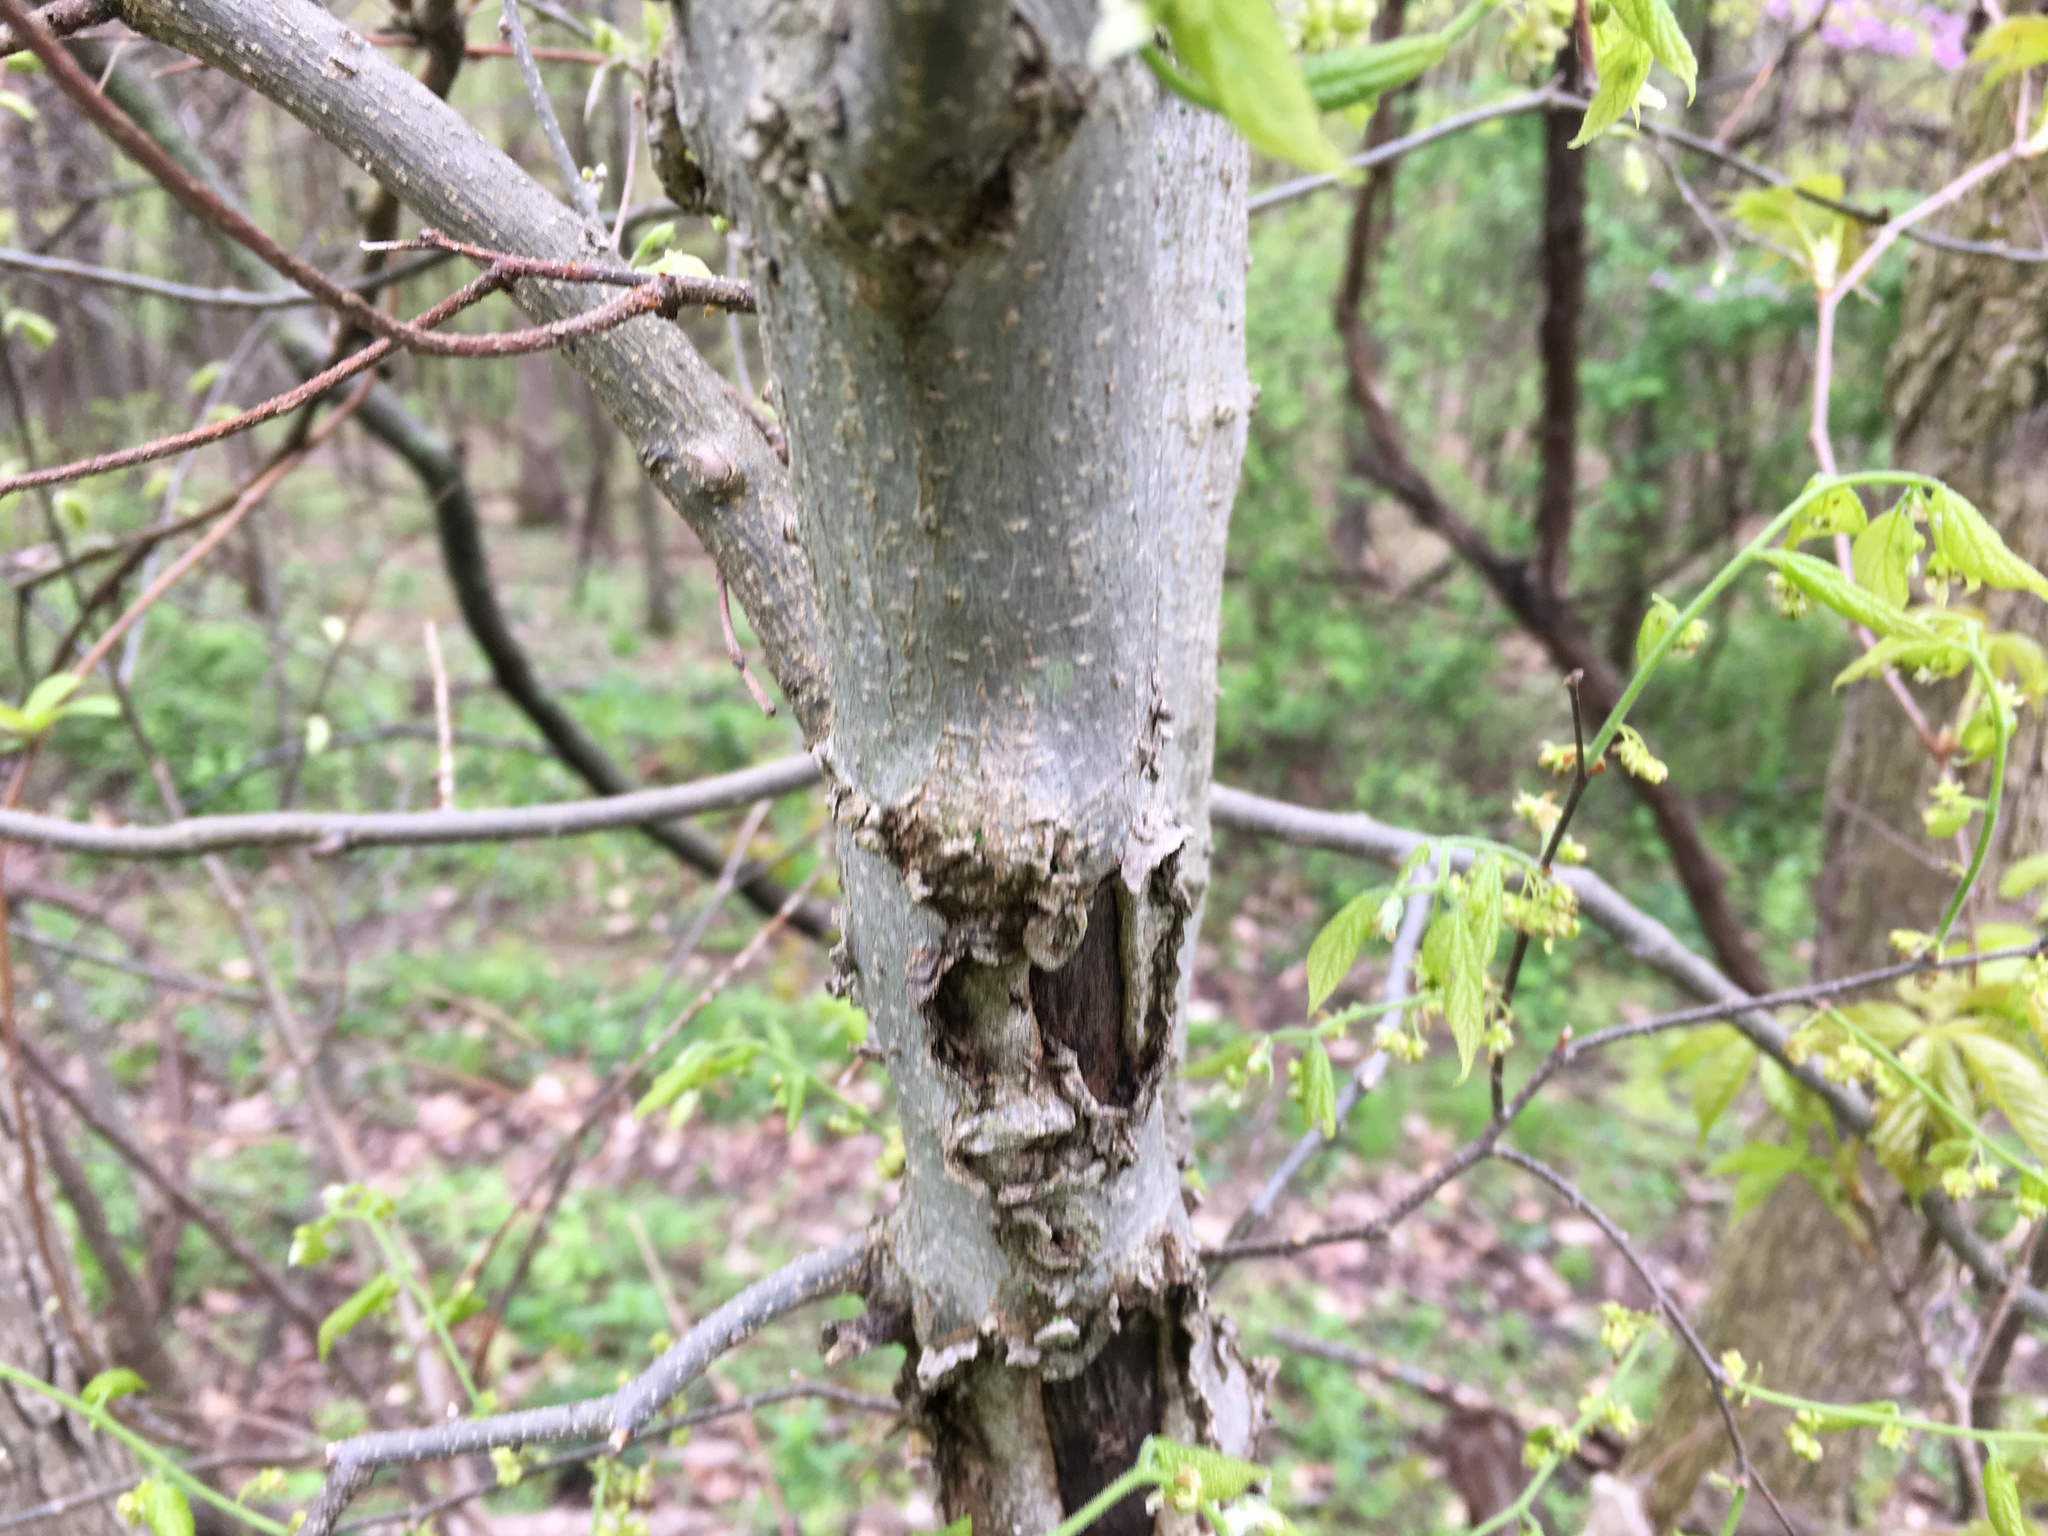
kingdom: Plantae
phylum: Tracheophyta
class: Magnoliopsida
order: Rosales
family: Cannabaceae
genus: Celtis
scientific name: Celtis occidentalis
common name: Common hackberry
